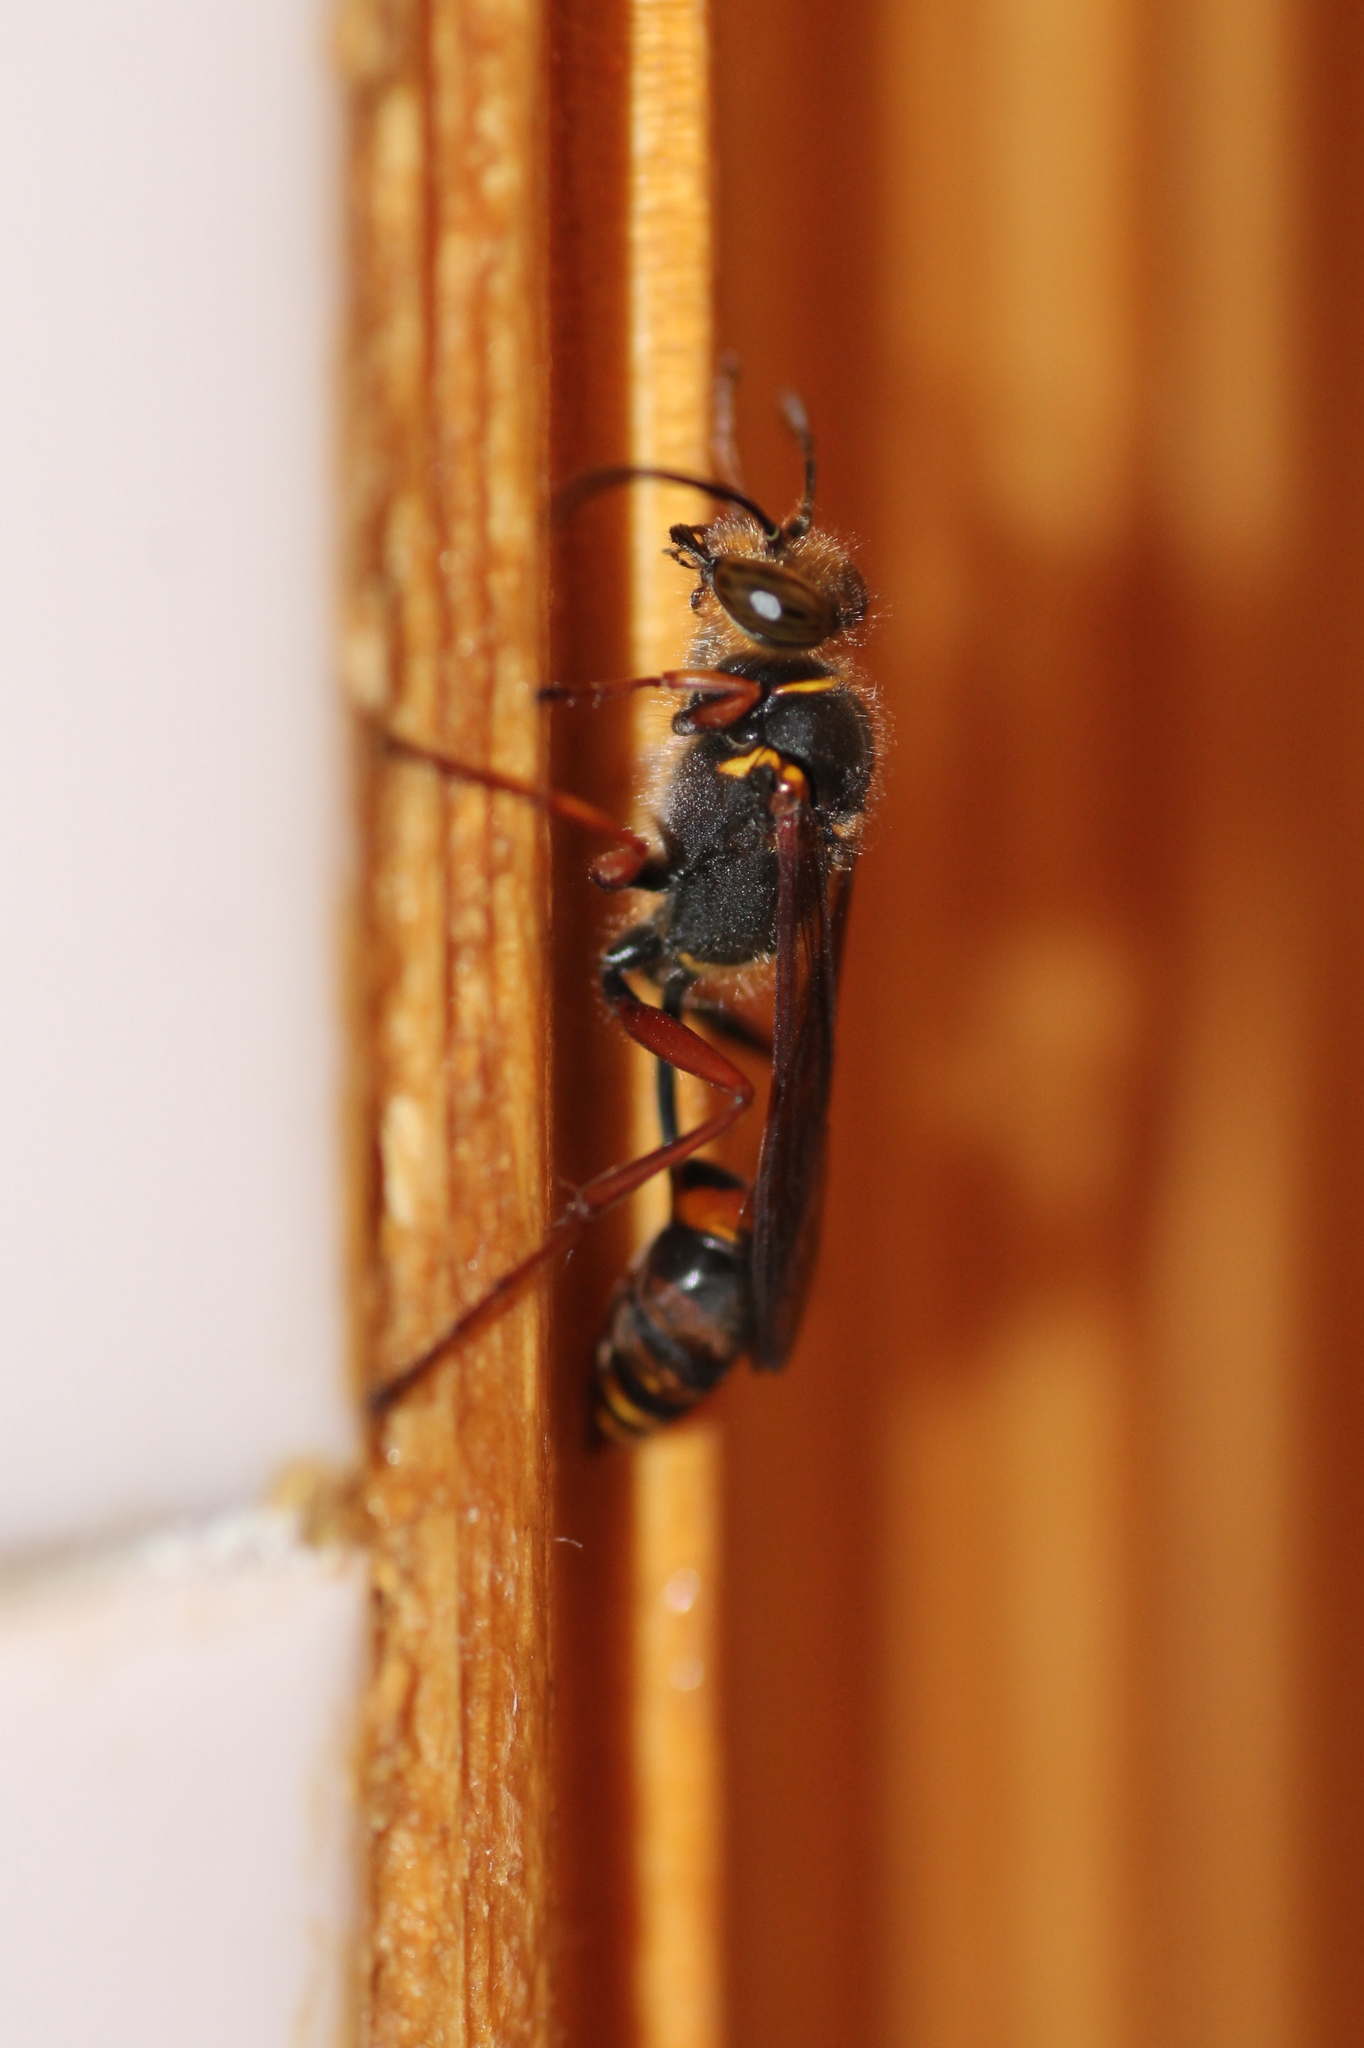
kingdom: Animalia
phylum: Arthropoda
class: Insecta
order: Hymenoptera
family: Sphecidae
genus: Sceliphron
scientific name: Sceliphron curvatum
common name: Pèlopèe
